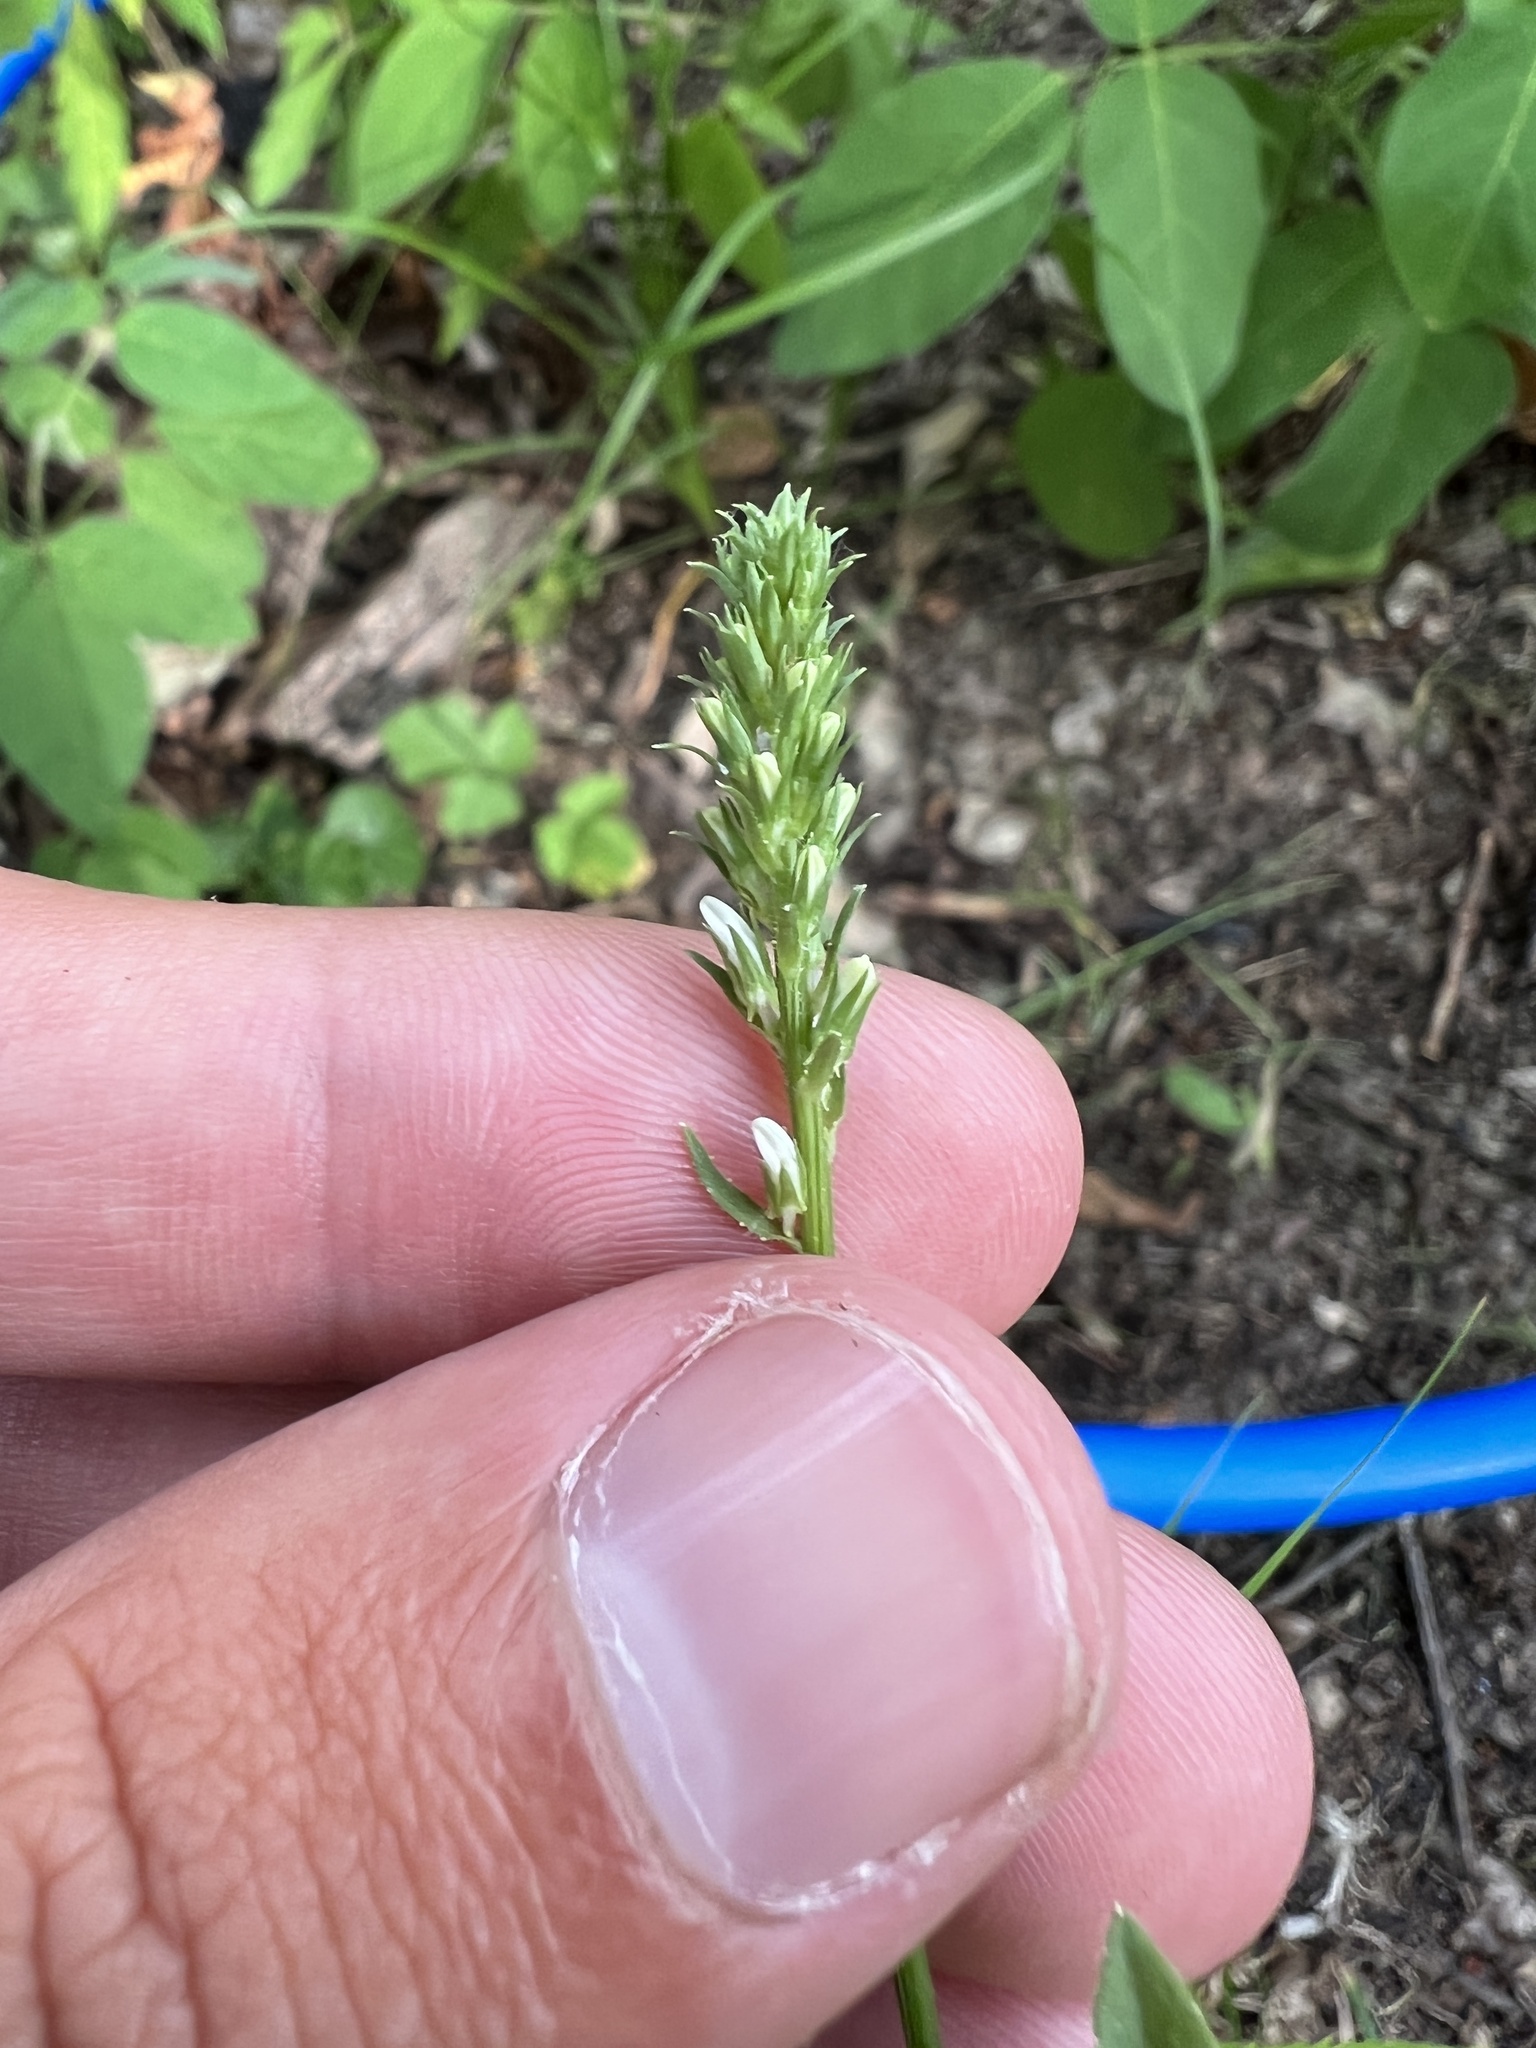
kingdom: Plantae
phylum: Tracheophyta
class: Magnoliopsida
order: Asterales
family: Campanulaceae
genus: Lobelia
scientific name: Lobelia spicata
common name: Pale-spike lobelia
